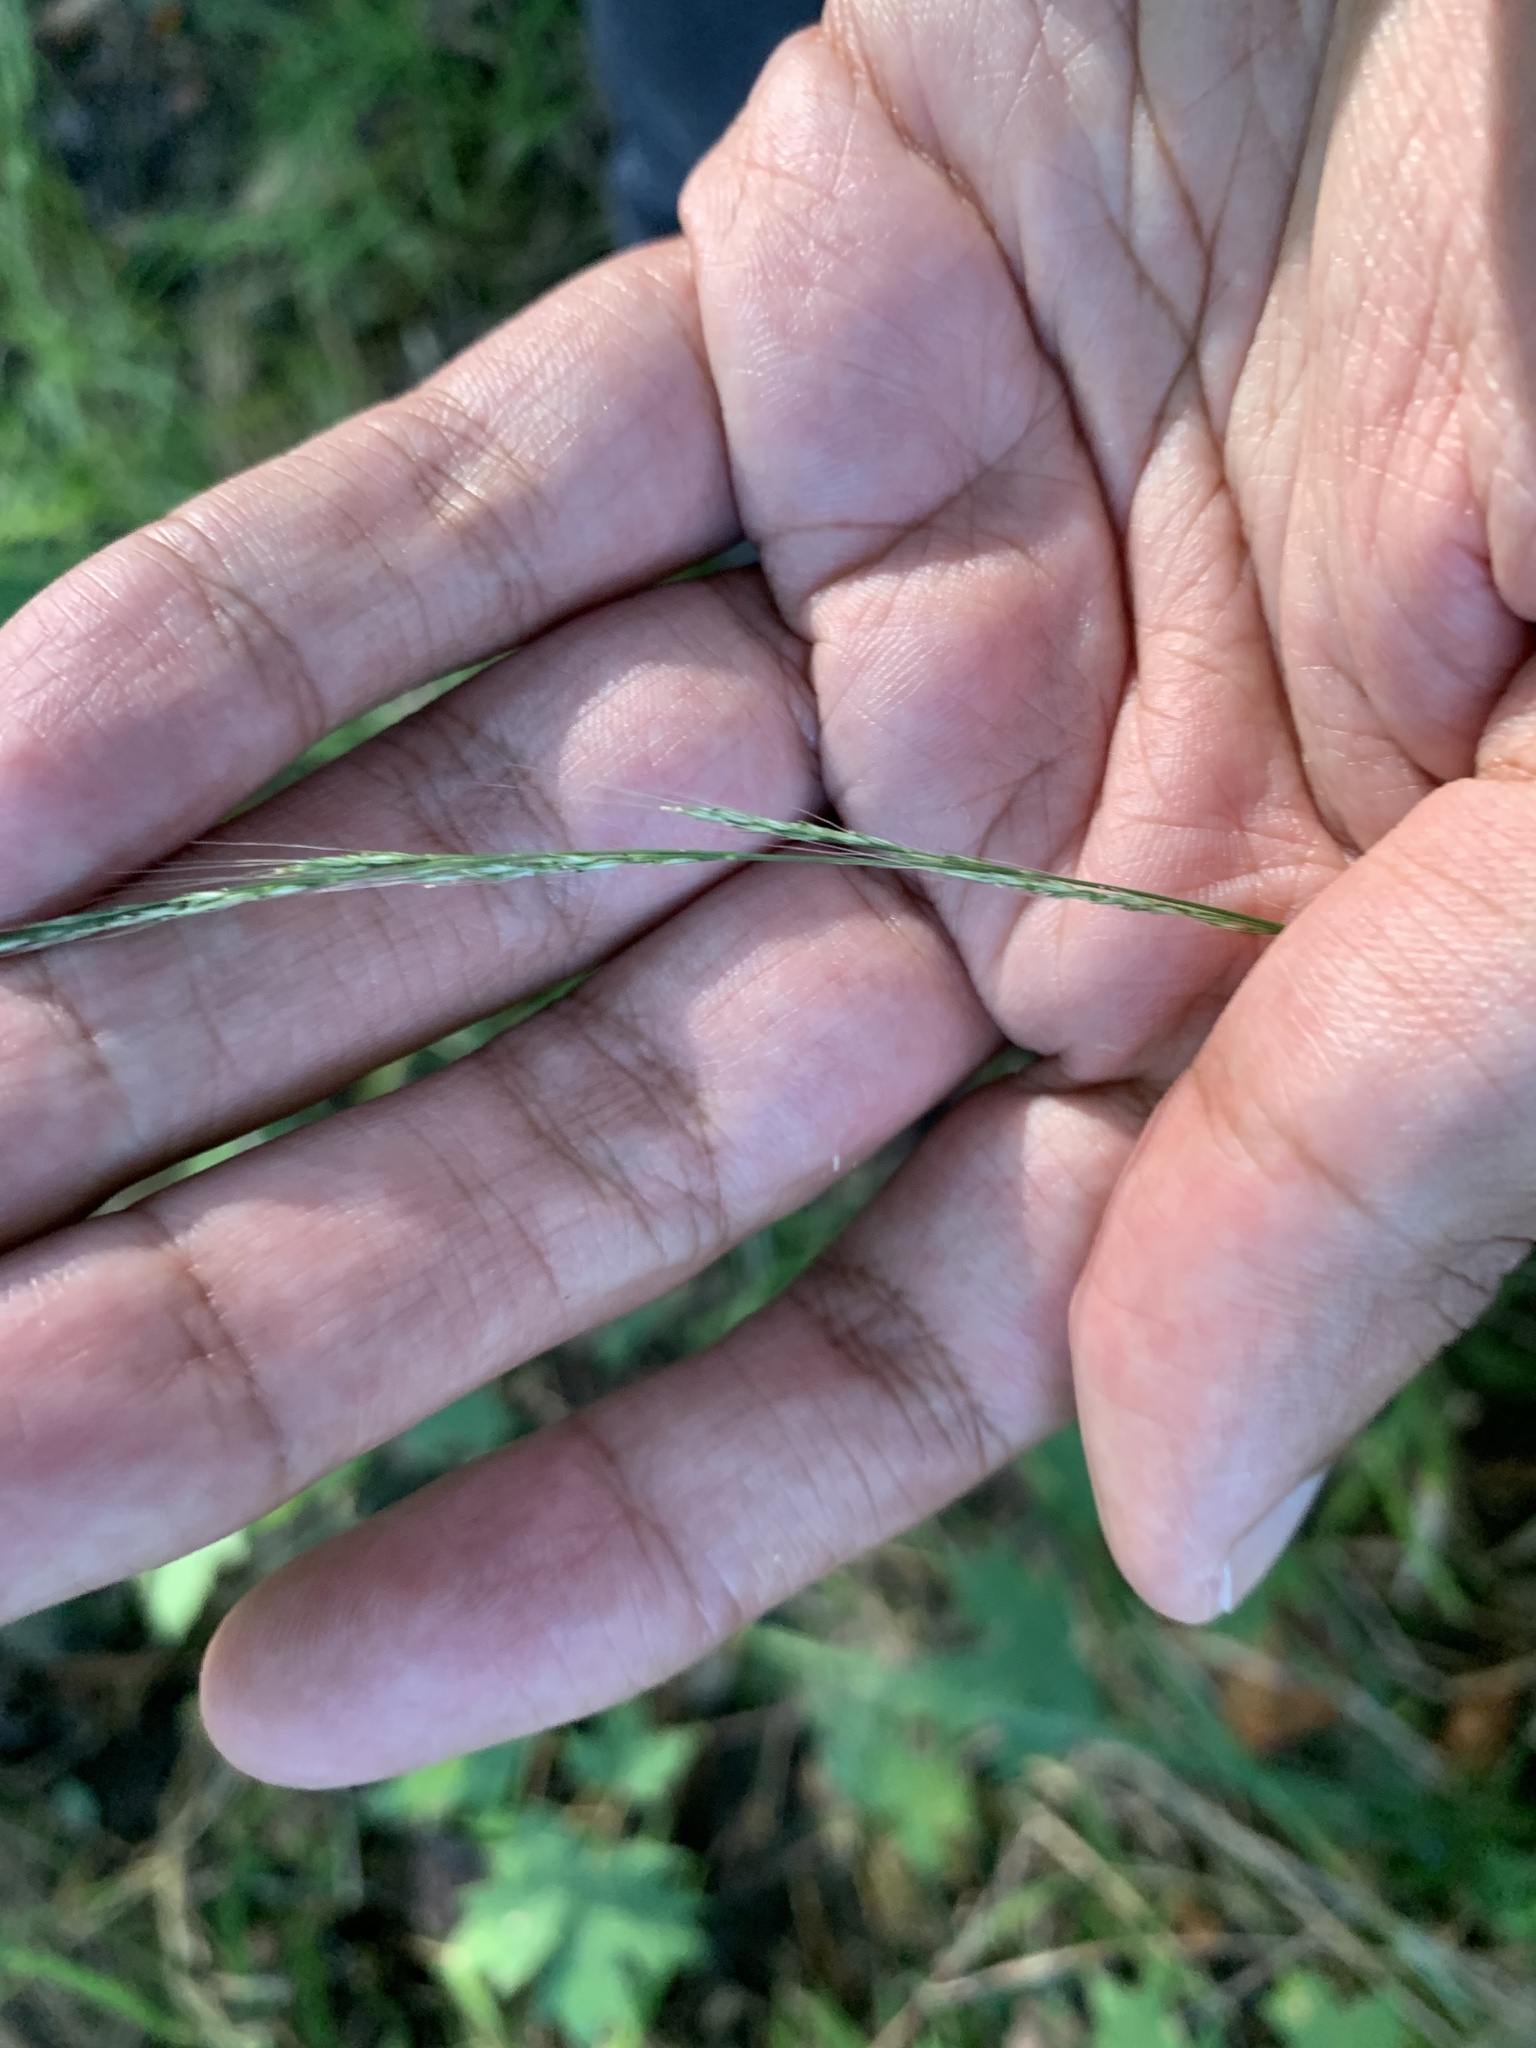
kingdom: Plantae
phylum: Tracheophyta
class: Liliopsida
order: Poales
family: Poaceae
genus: Muhlenbergia
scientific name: Muhlenbergia sylvatica
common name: Woodland muhly
